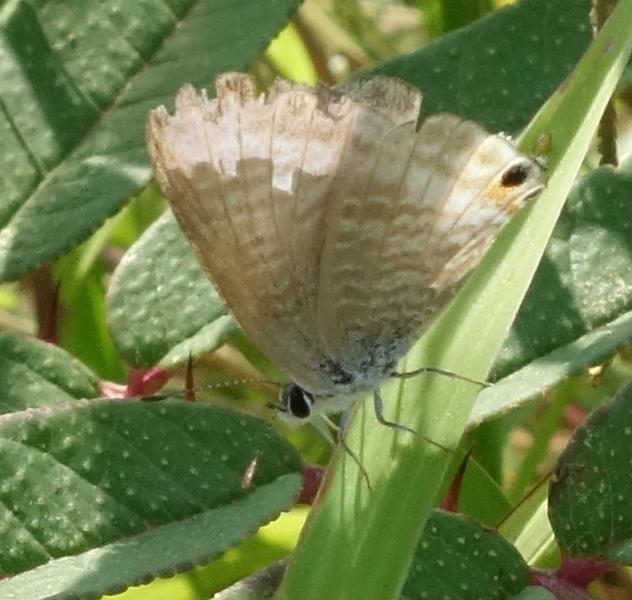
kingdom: Animalia
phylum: Arthropoda
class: Insecta
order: Lepidoptera
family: Lycaenidae
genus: Lampides
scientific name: Lampides boeticus
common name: Long-tailed blue
